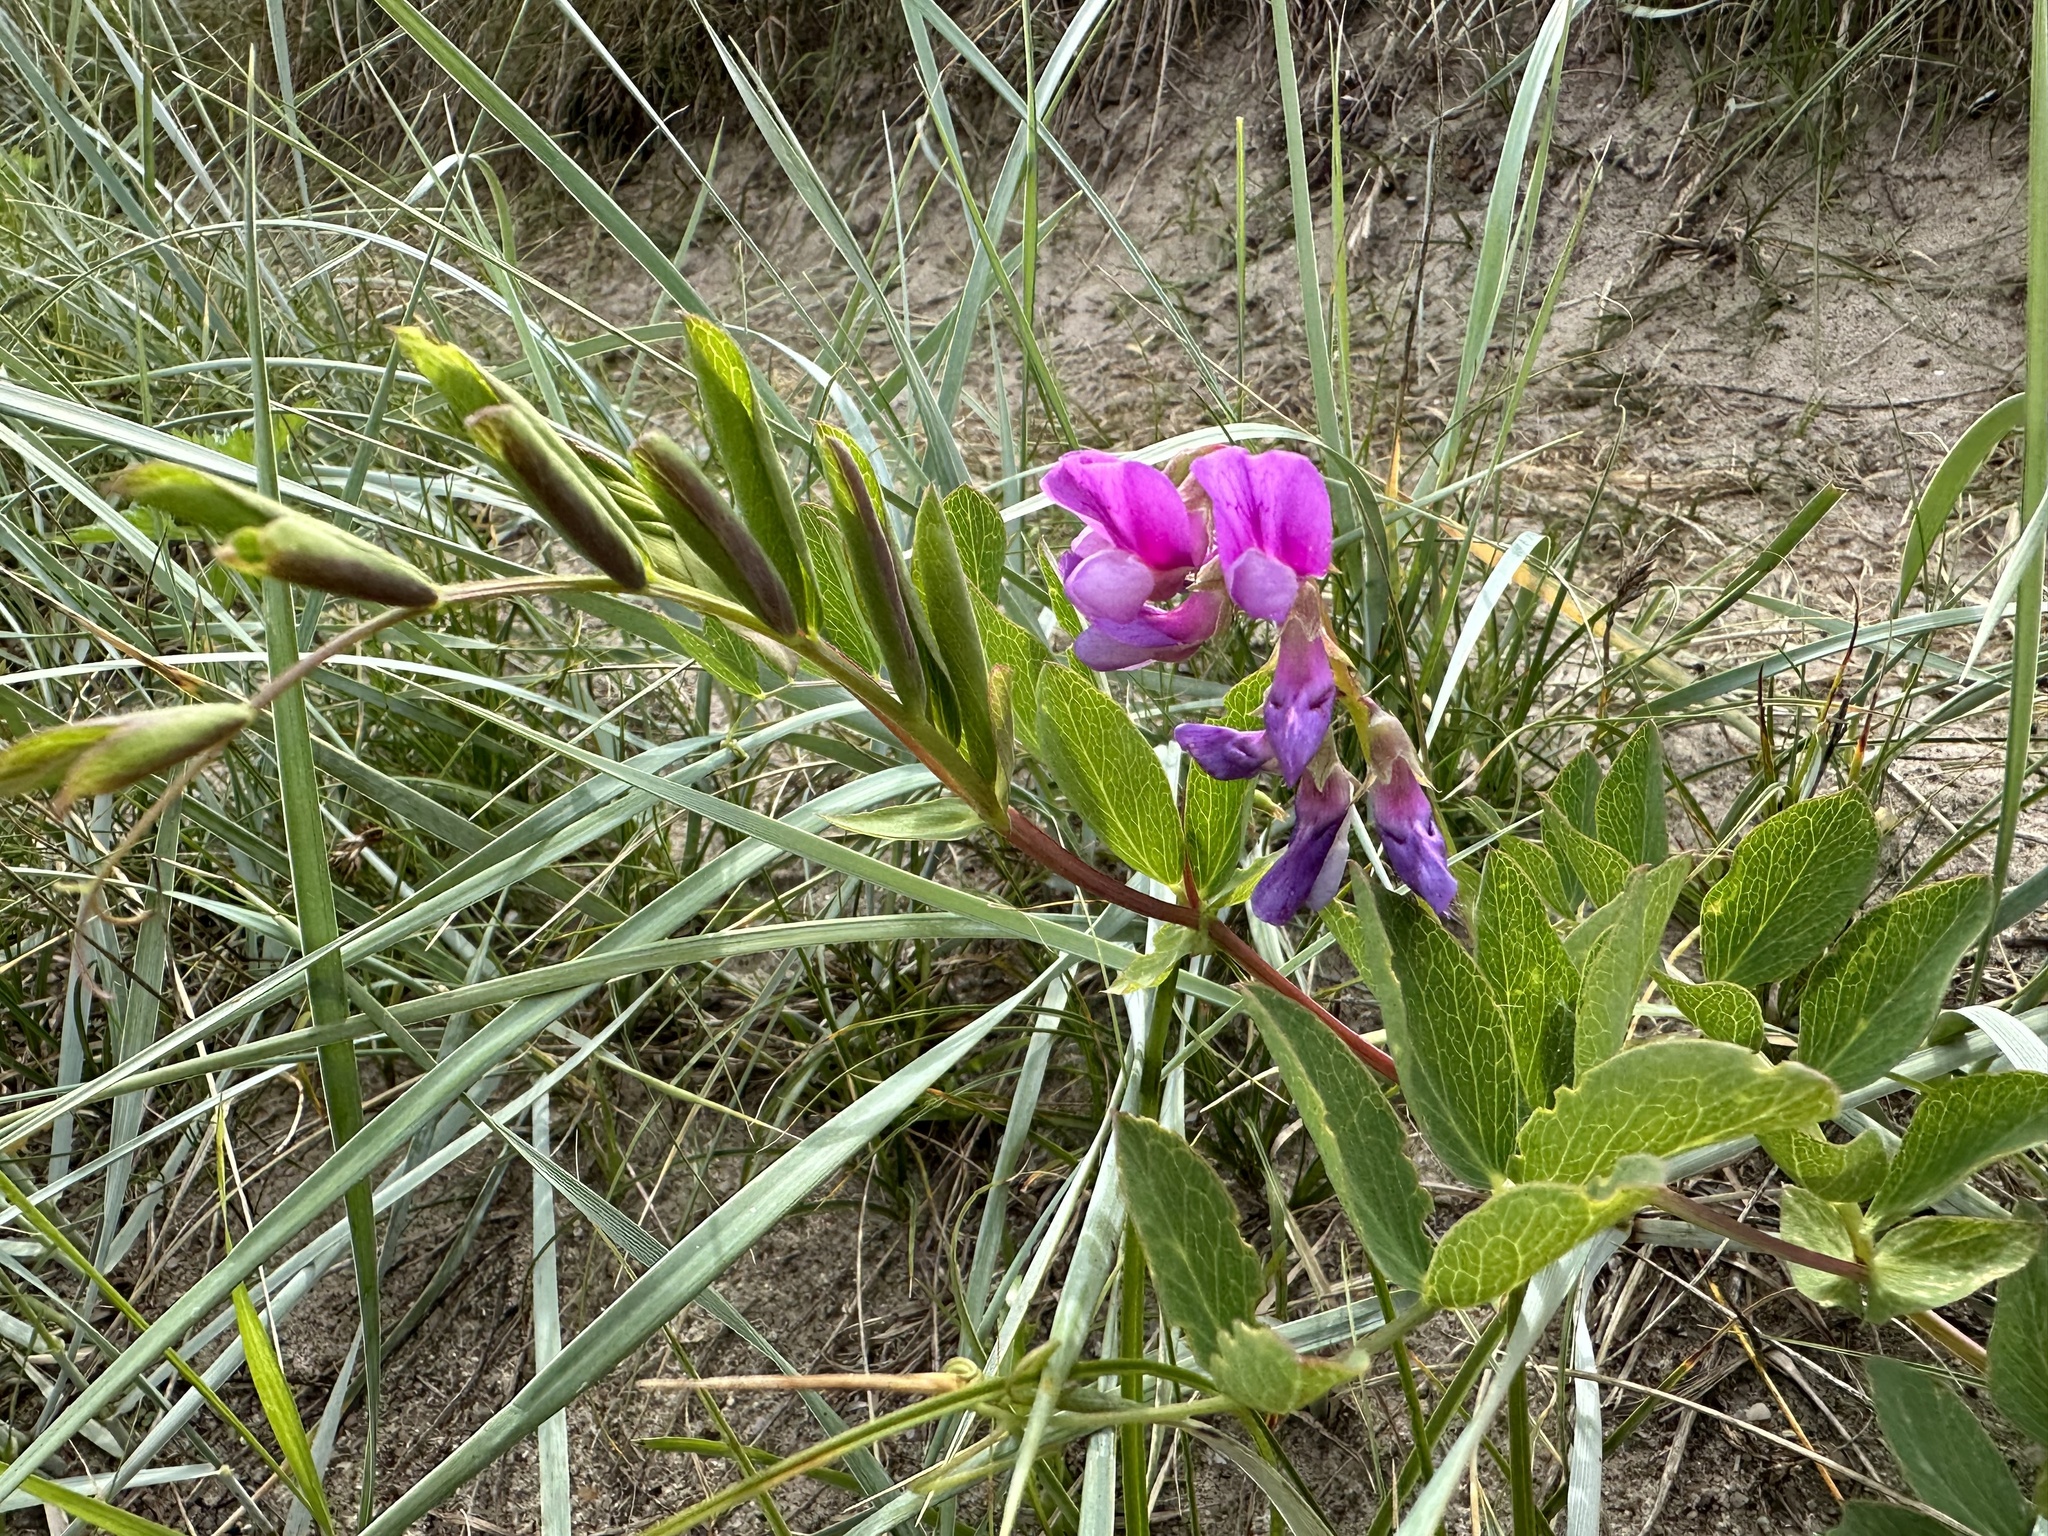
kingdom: Plantae
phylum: Tracheophyta
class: Magnoliopsida
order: Fabales
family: Fabaceae
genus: Lathyrus
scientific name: Lathyrus japonicus
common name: Sea pea
